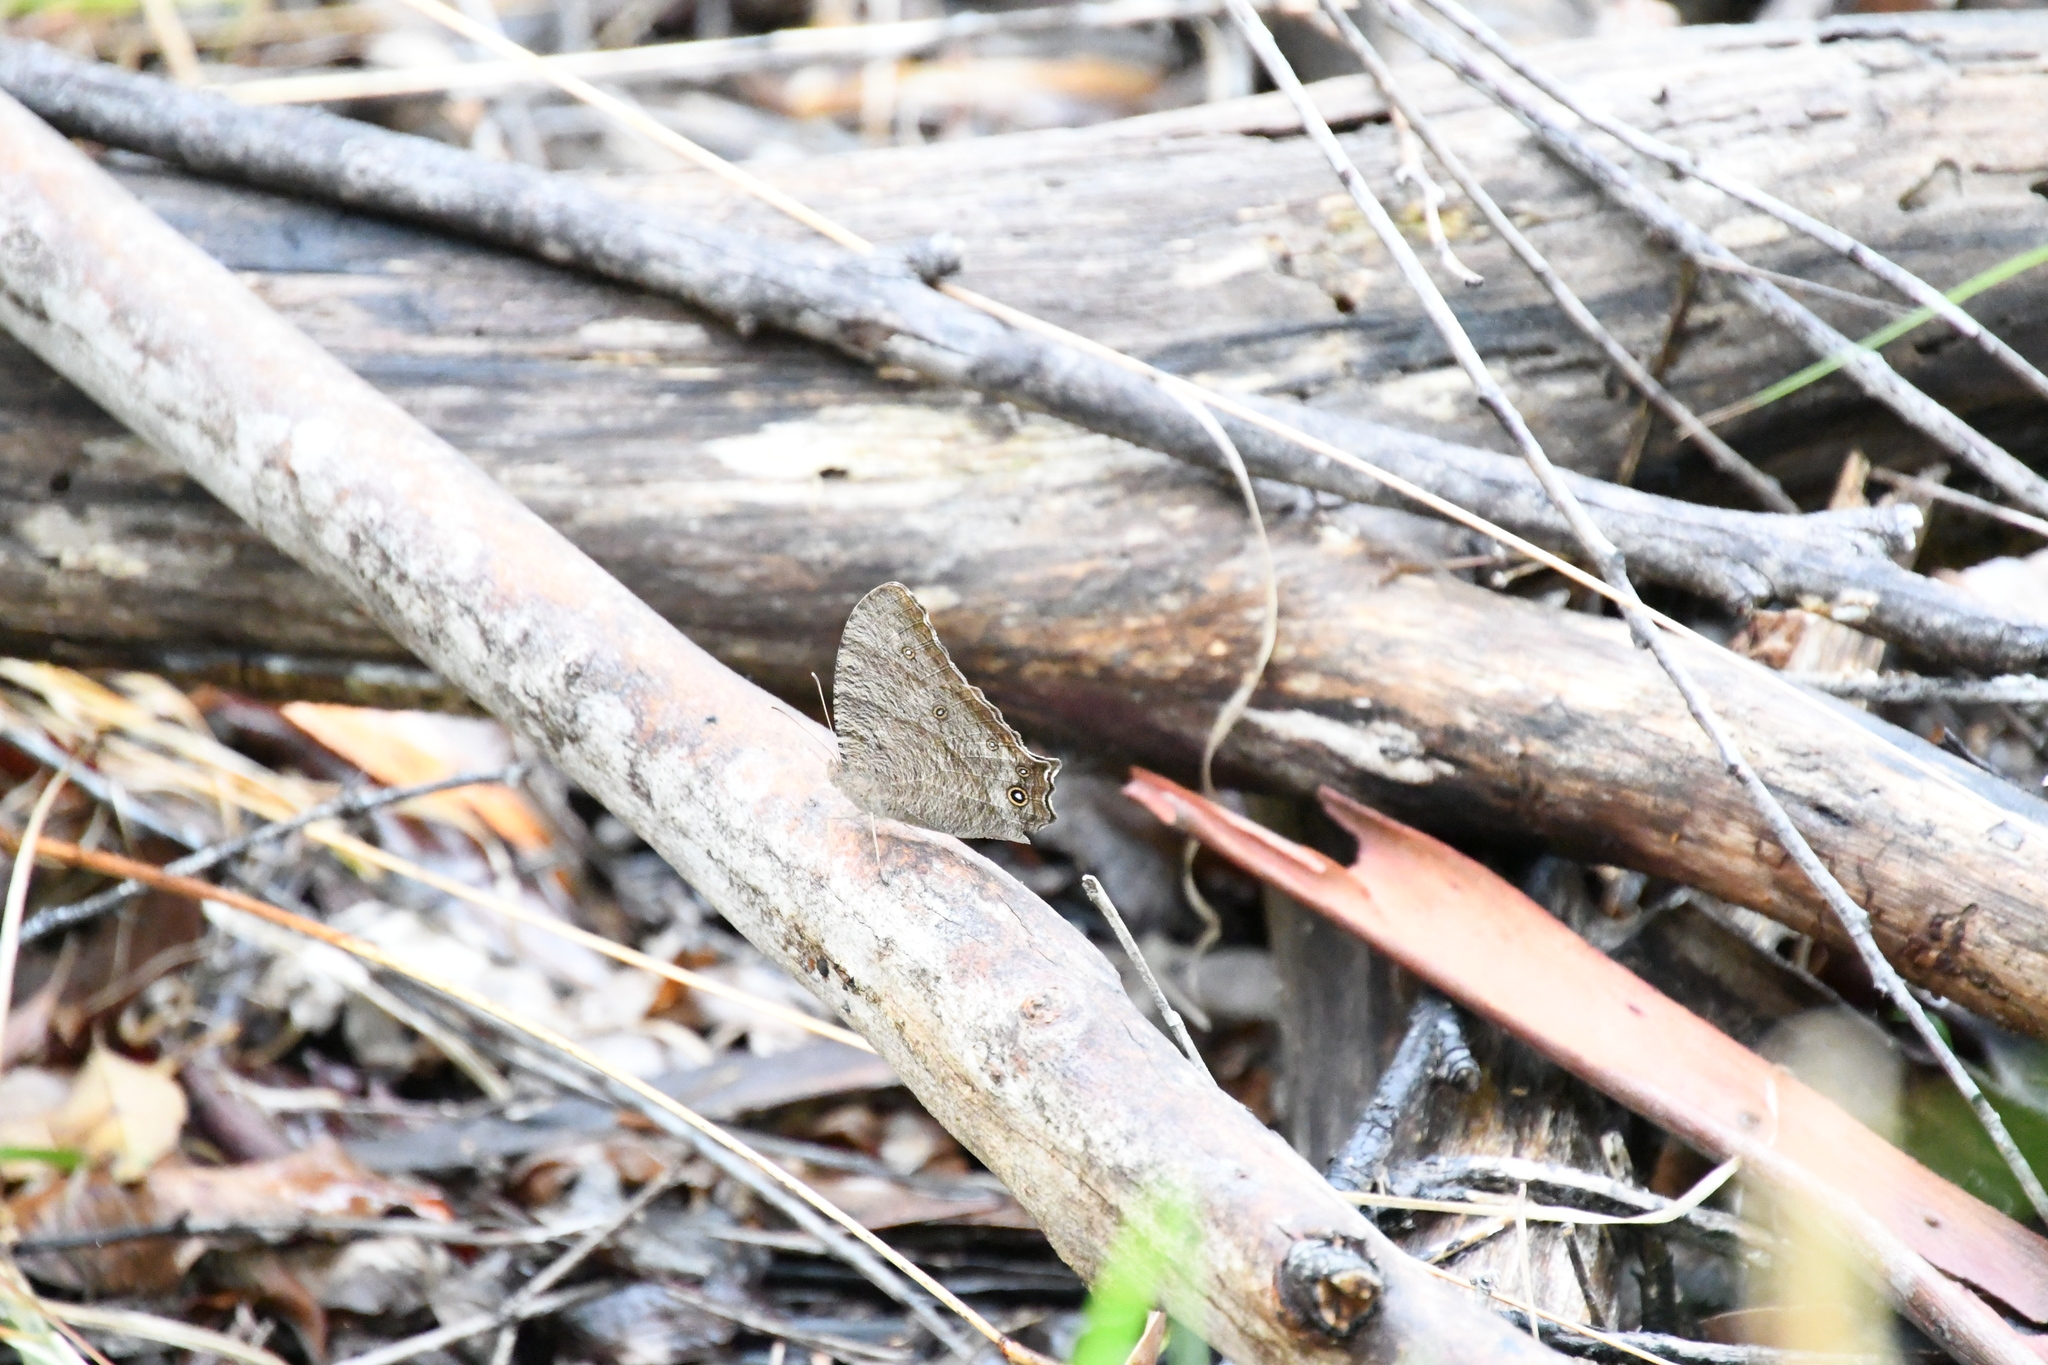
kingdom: Animalia
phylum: Arthropoda
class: Insecta
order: Lepidoptera
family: Nymphalidae
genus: Melanitis
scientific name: Melanitis leda
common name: Twilight brown
